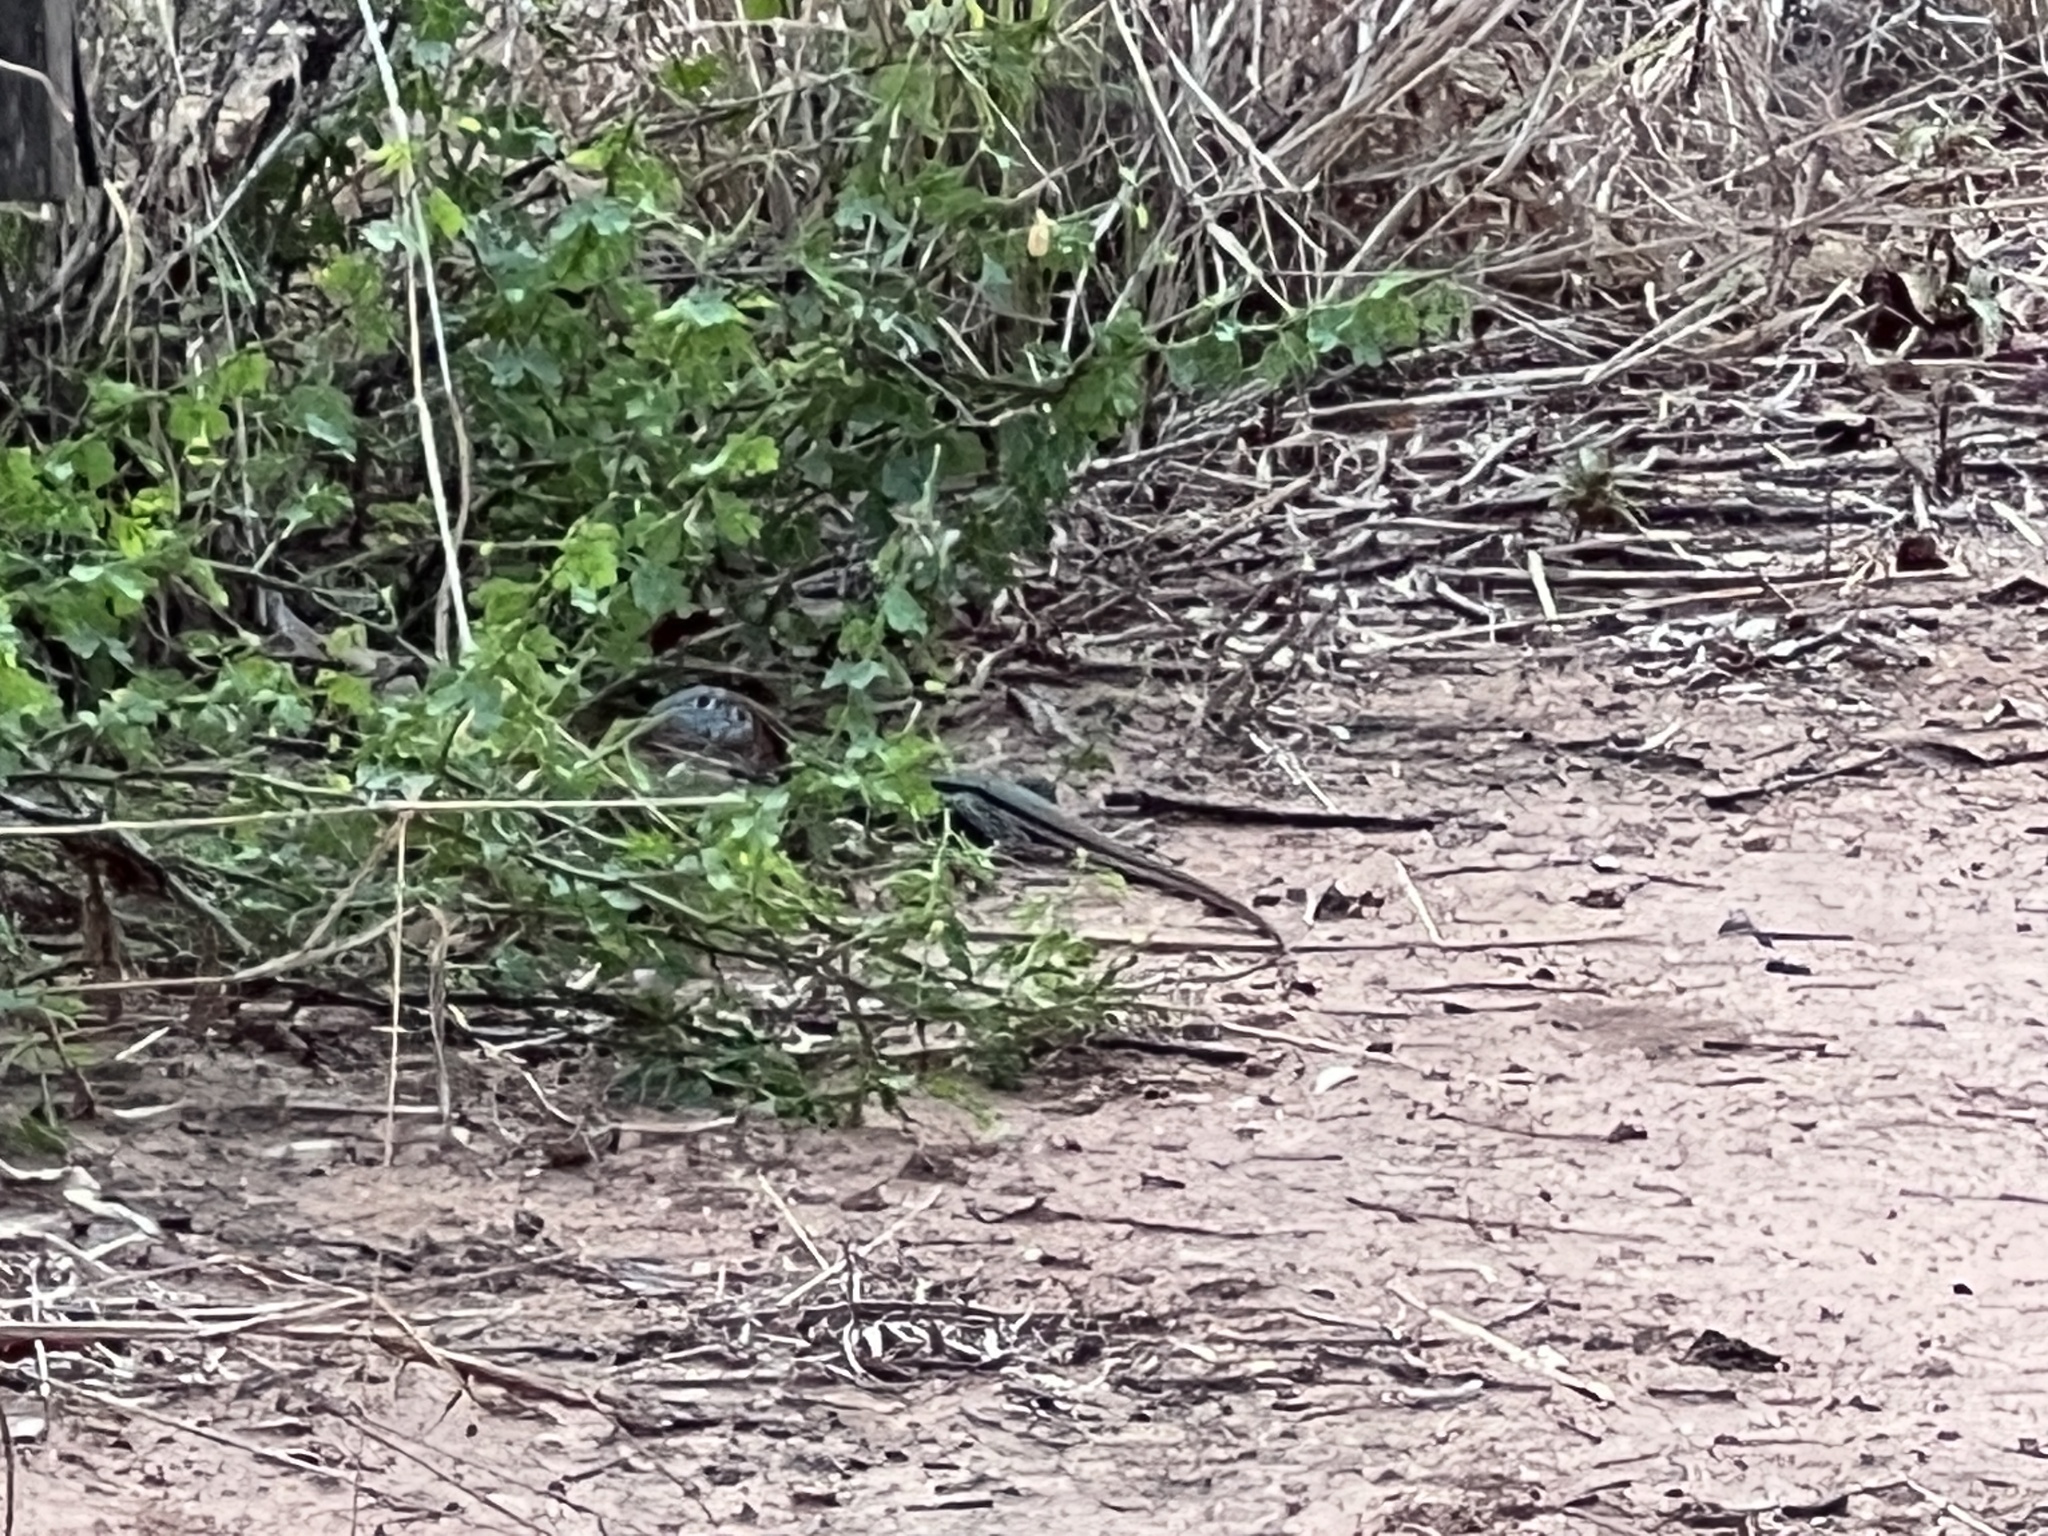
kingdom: Animalia
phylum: Chordata
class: Squamata
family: Teiidae
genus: Teius
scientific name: Teius teyou
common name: Four-toed tegu
